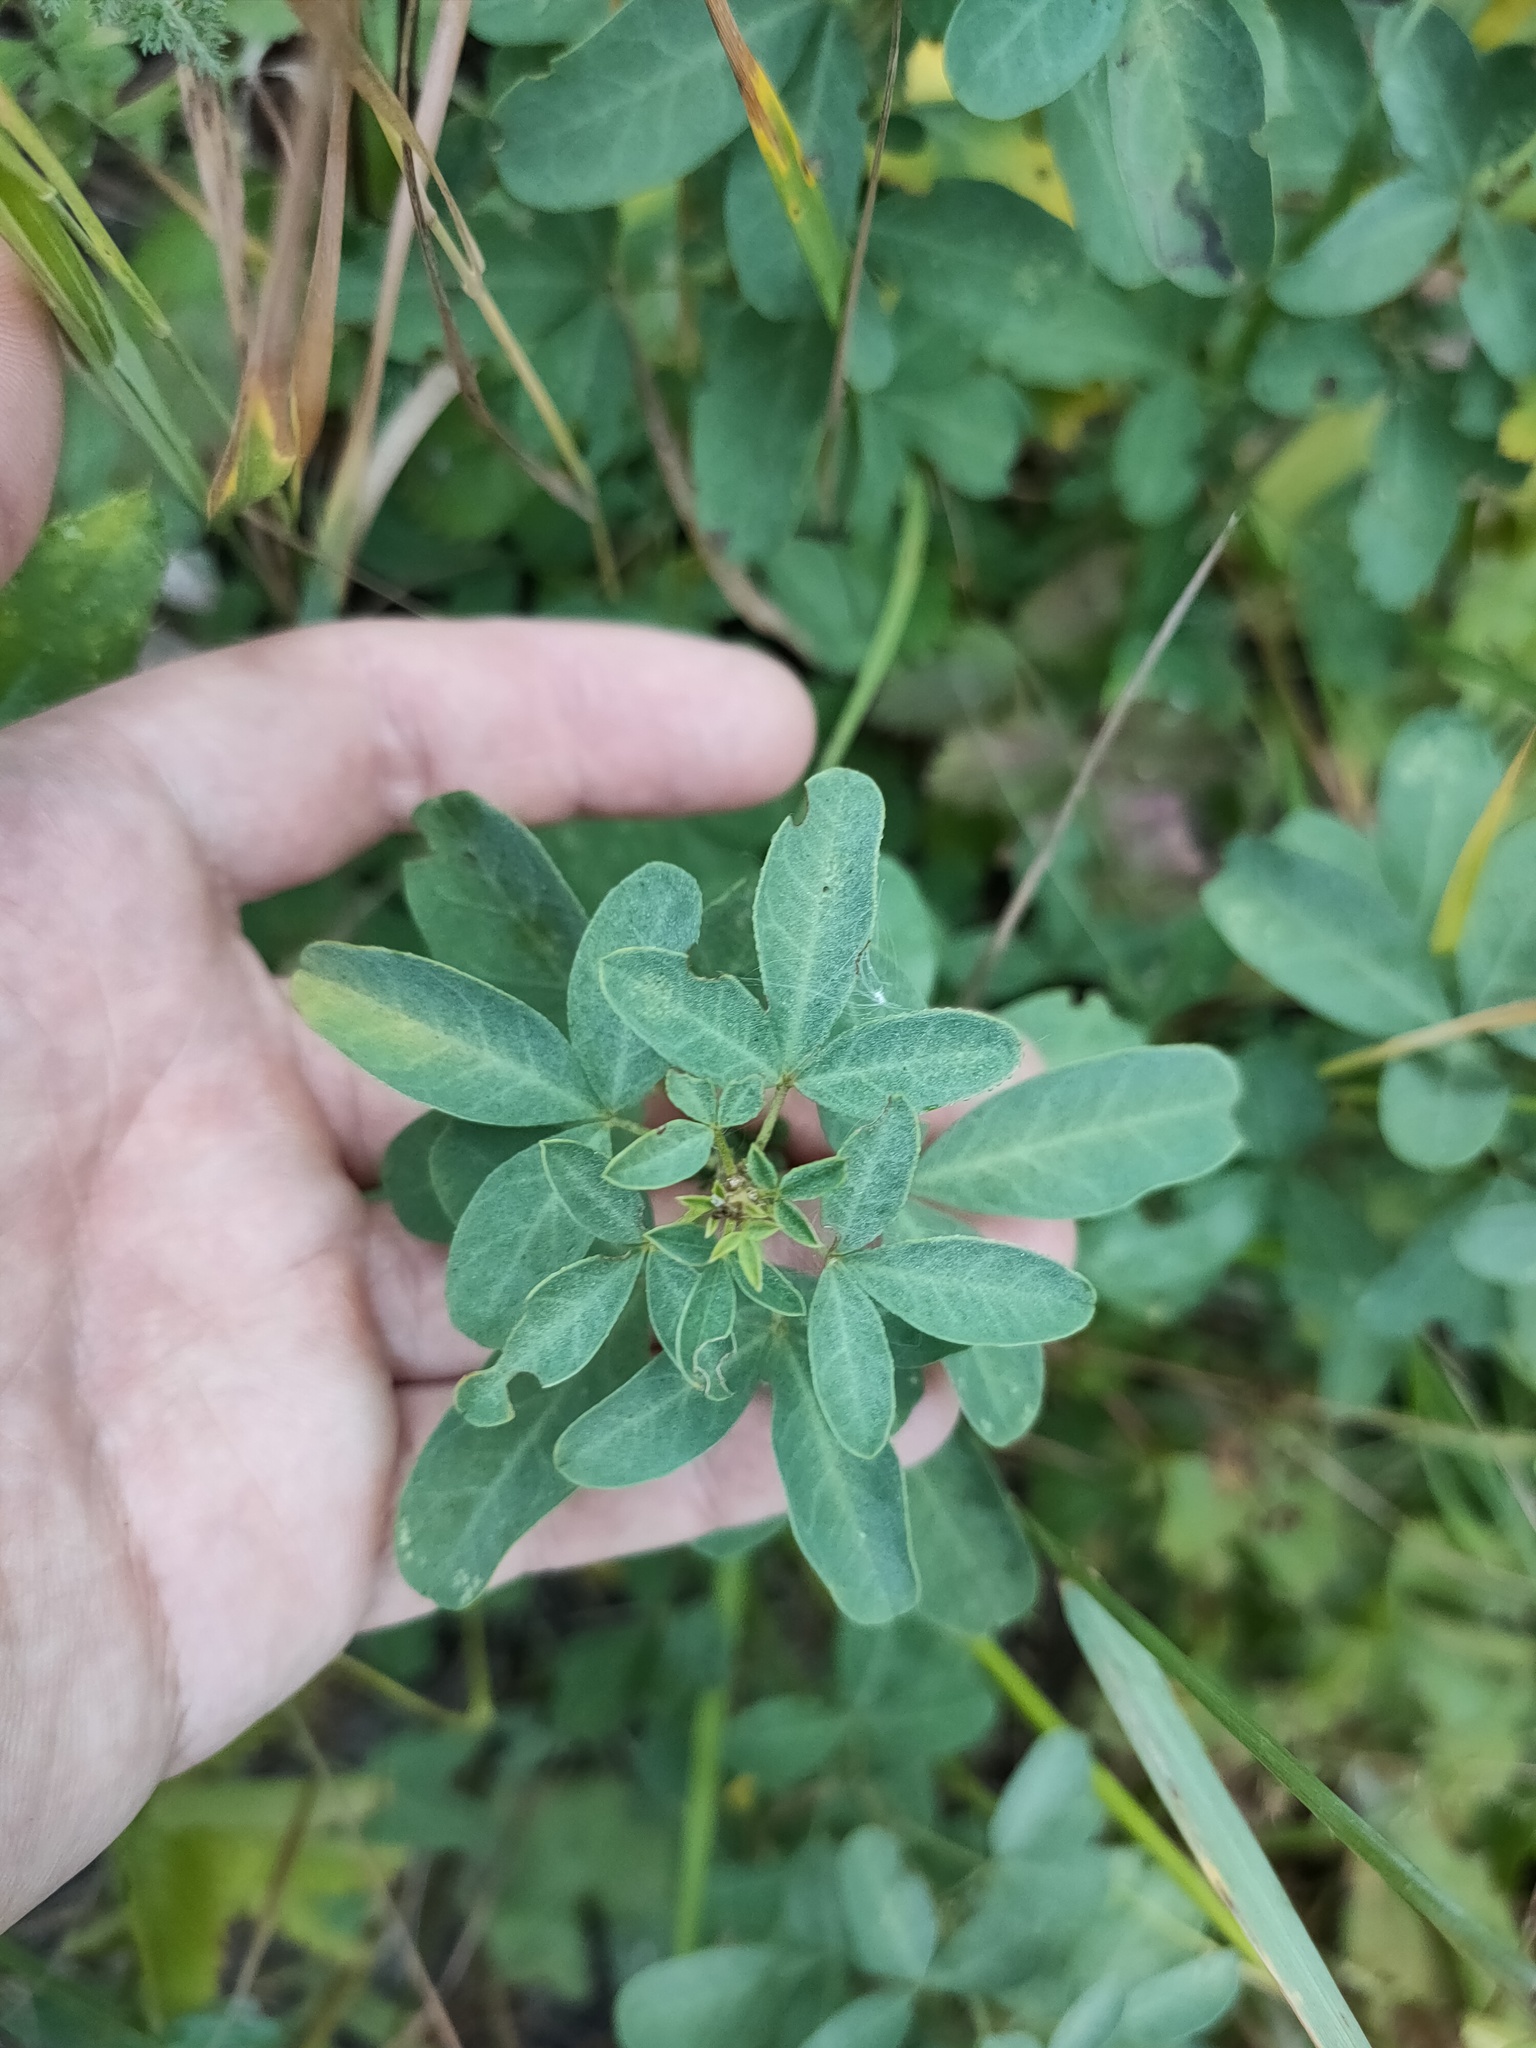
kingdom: Plantae
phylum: Tracheophyta
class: Magnoliopsida
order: Fabales
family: Fabaceae
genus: Chamaecytisus
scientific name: Chamaecytisus ruthenicus
